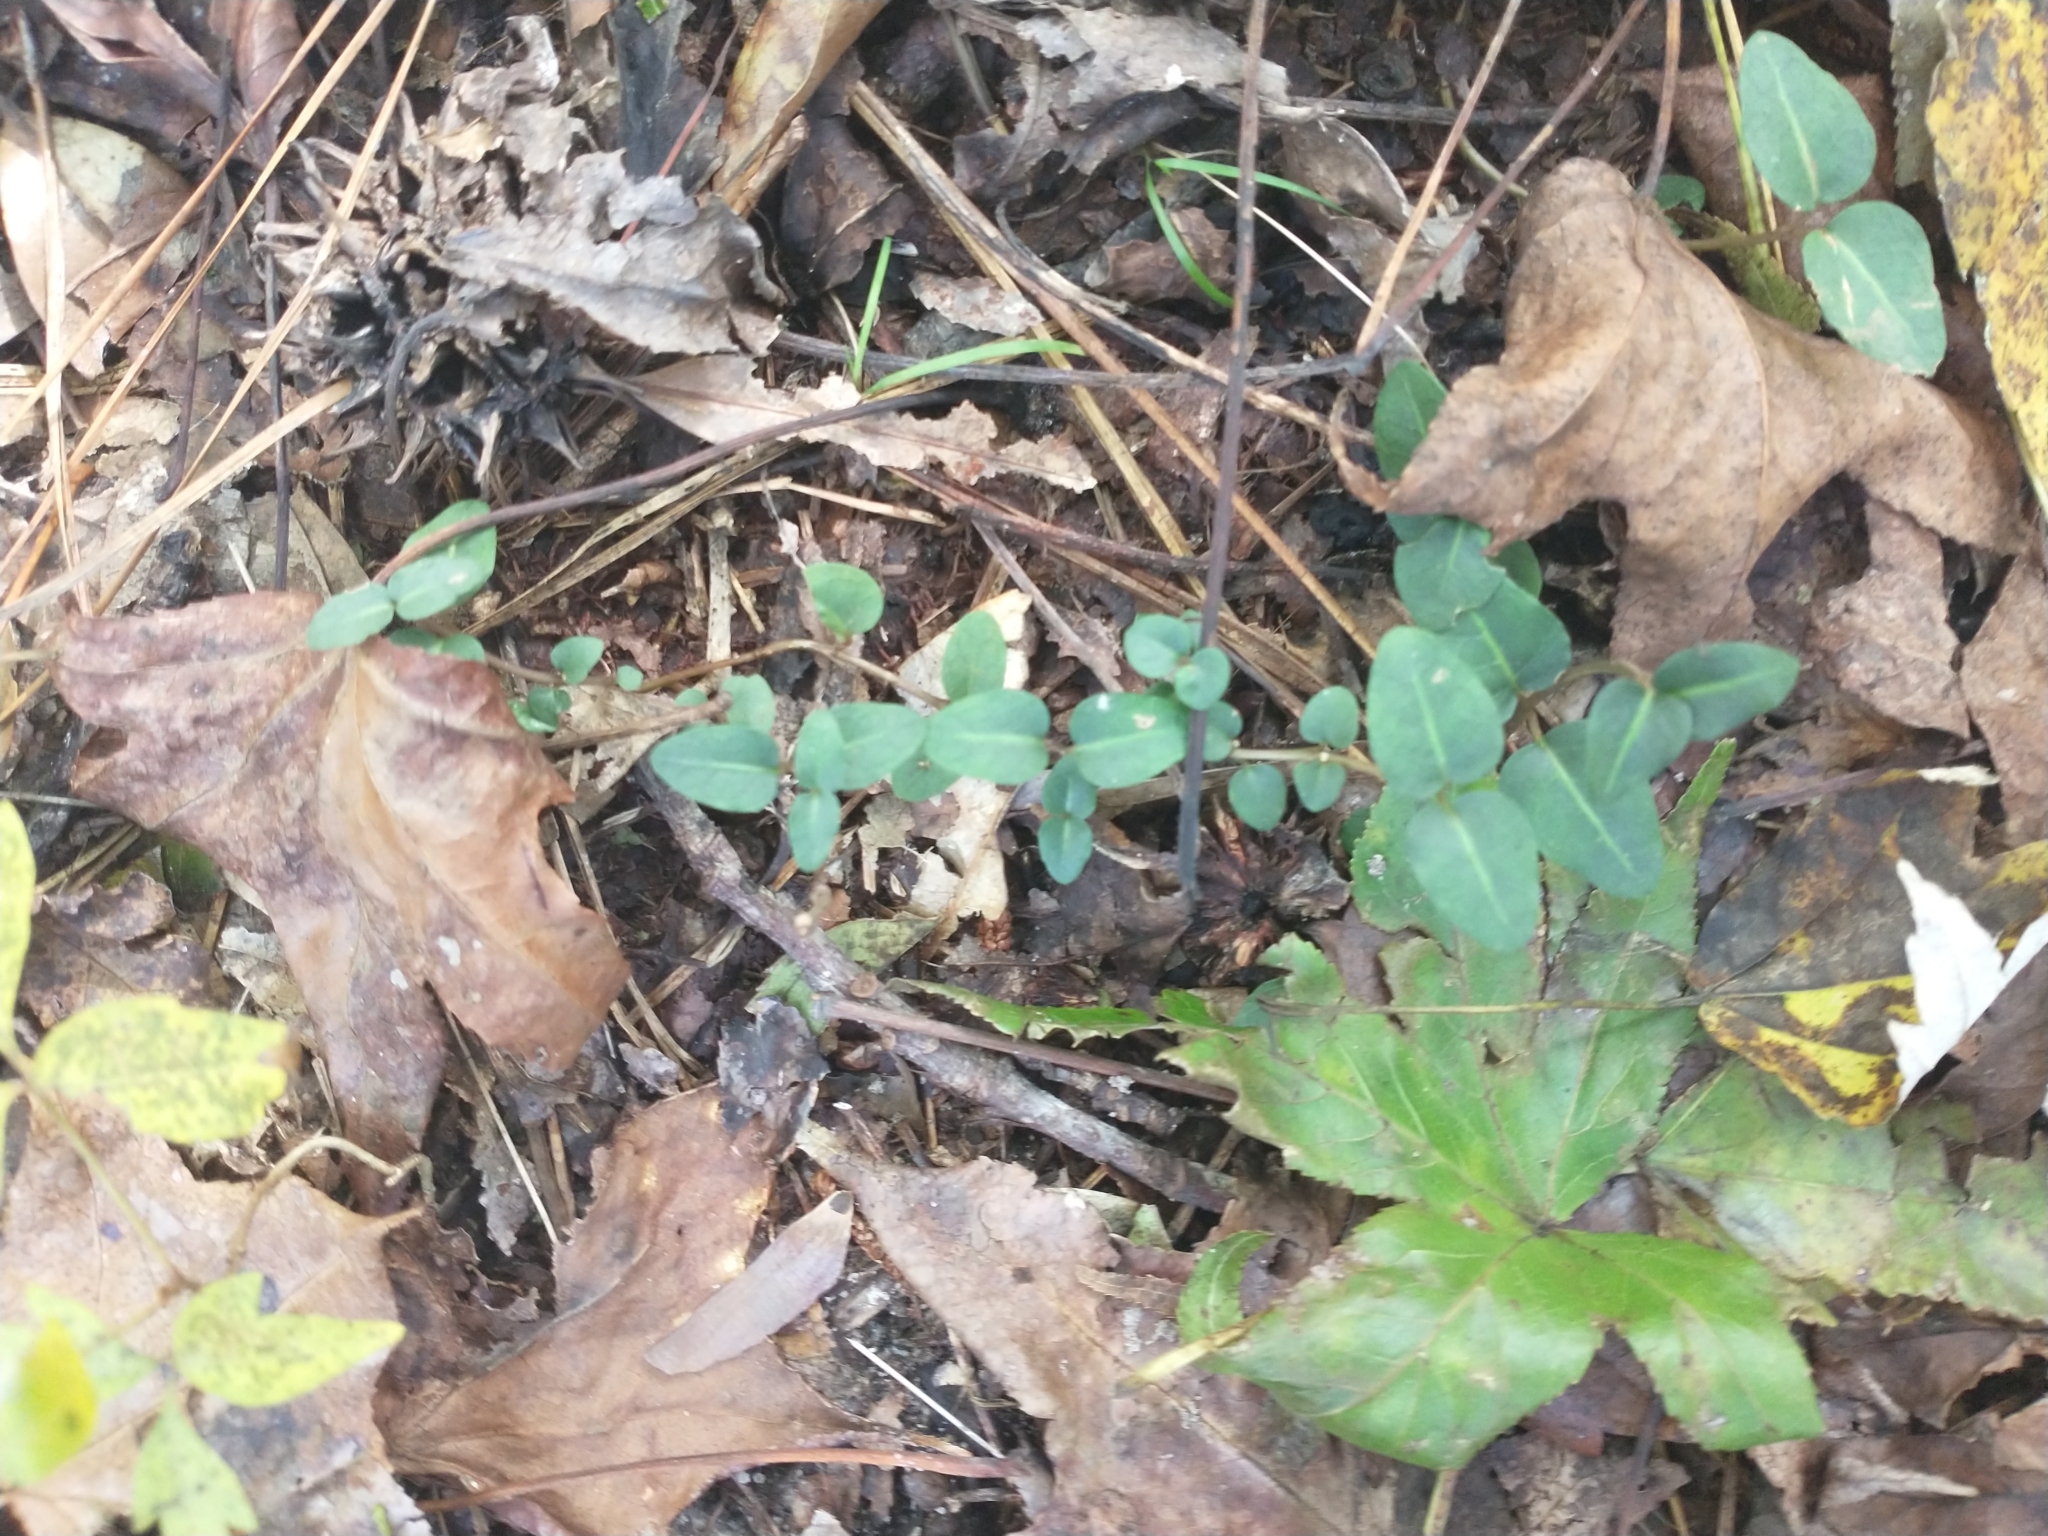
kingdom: Plantae
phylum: Tracheophyta
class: Magnoliopsida
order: Gentianales
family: Rubiaceae
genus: Mitchella
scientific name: Mitchella repens
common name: Partridge-berry
